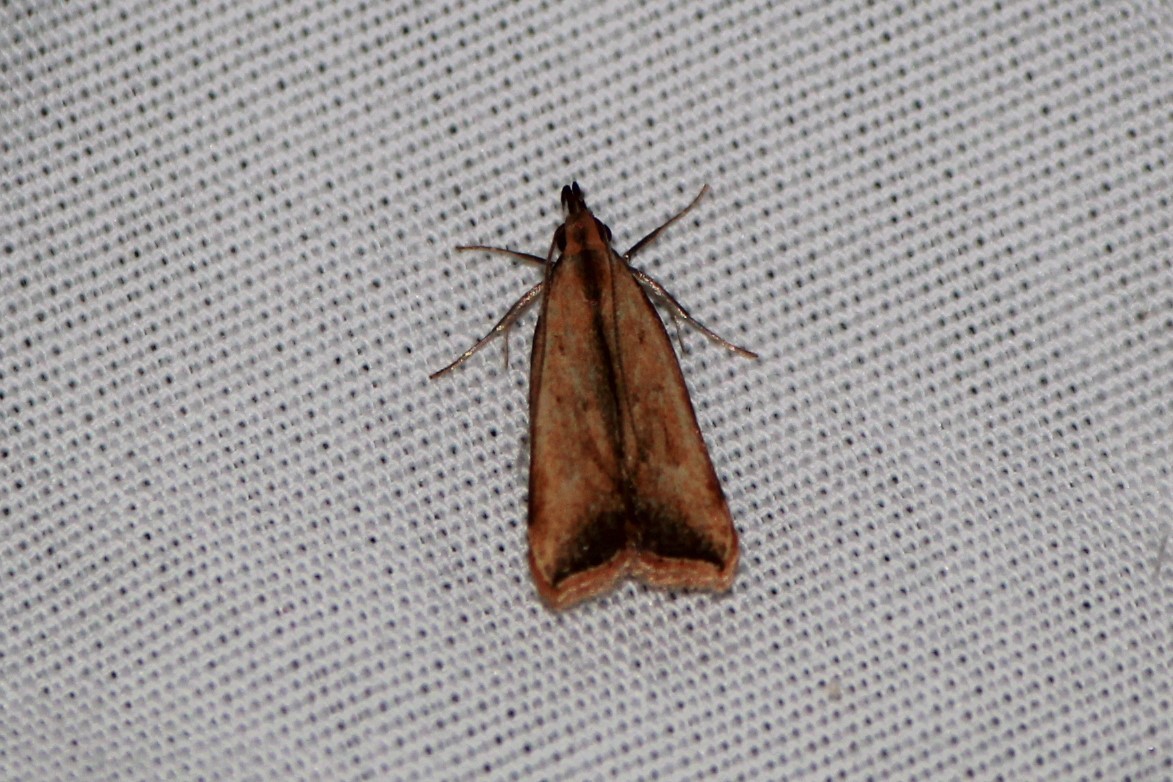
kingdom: Animalia
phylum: Arthropoda
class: Insecta
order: Lepidoptera
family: Gelechiidae
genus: Dichomeris
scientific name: Dichomeris heriguronis
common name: Black-edged dichomeris moth
